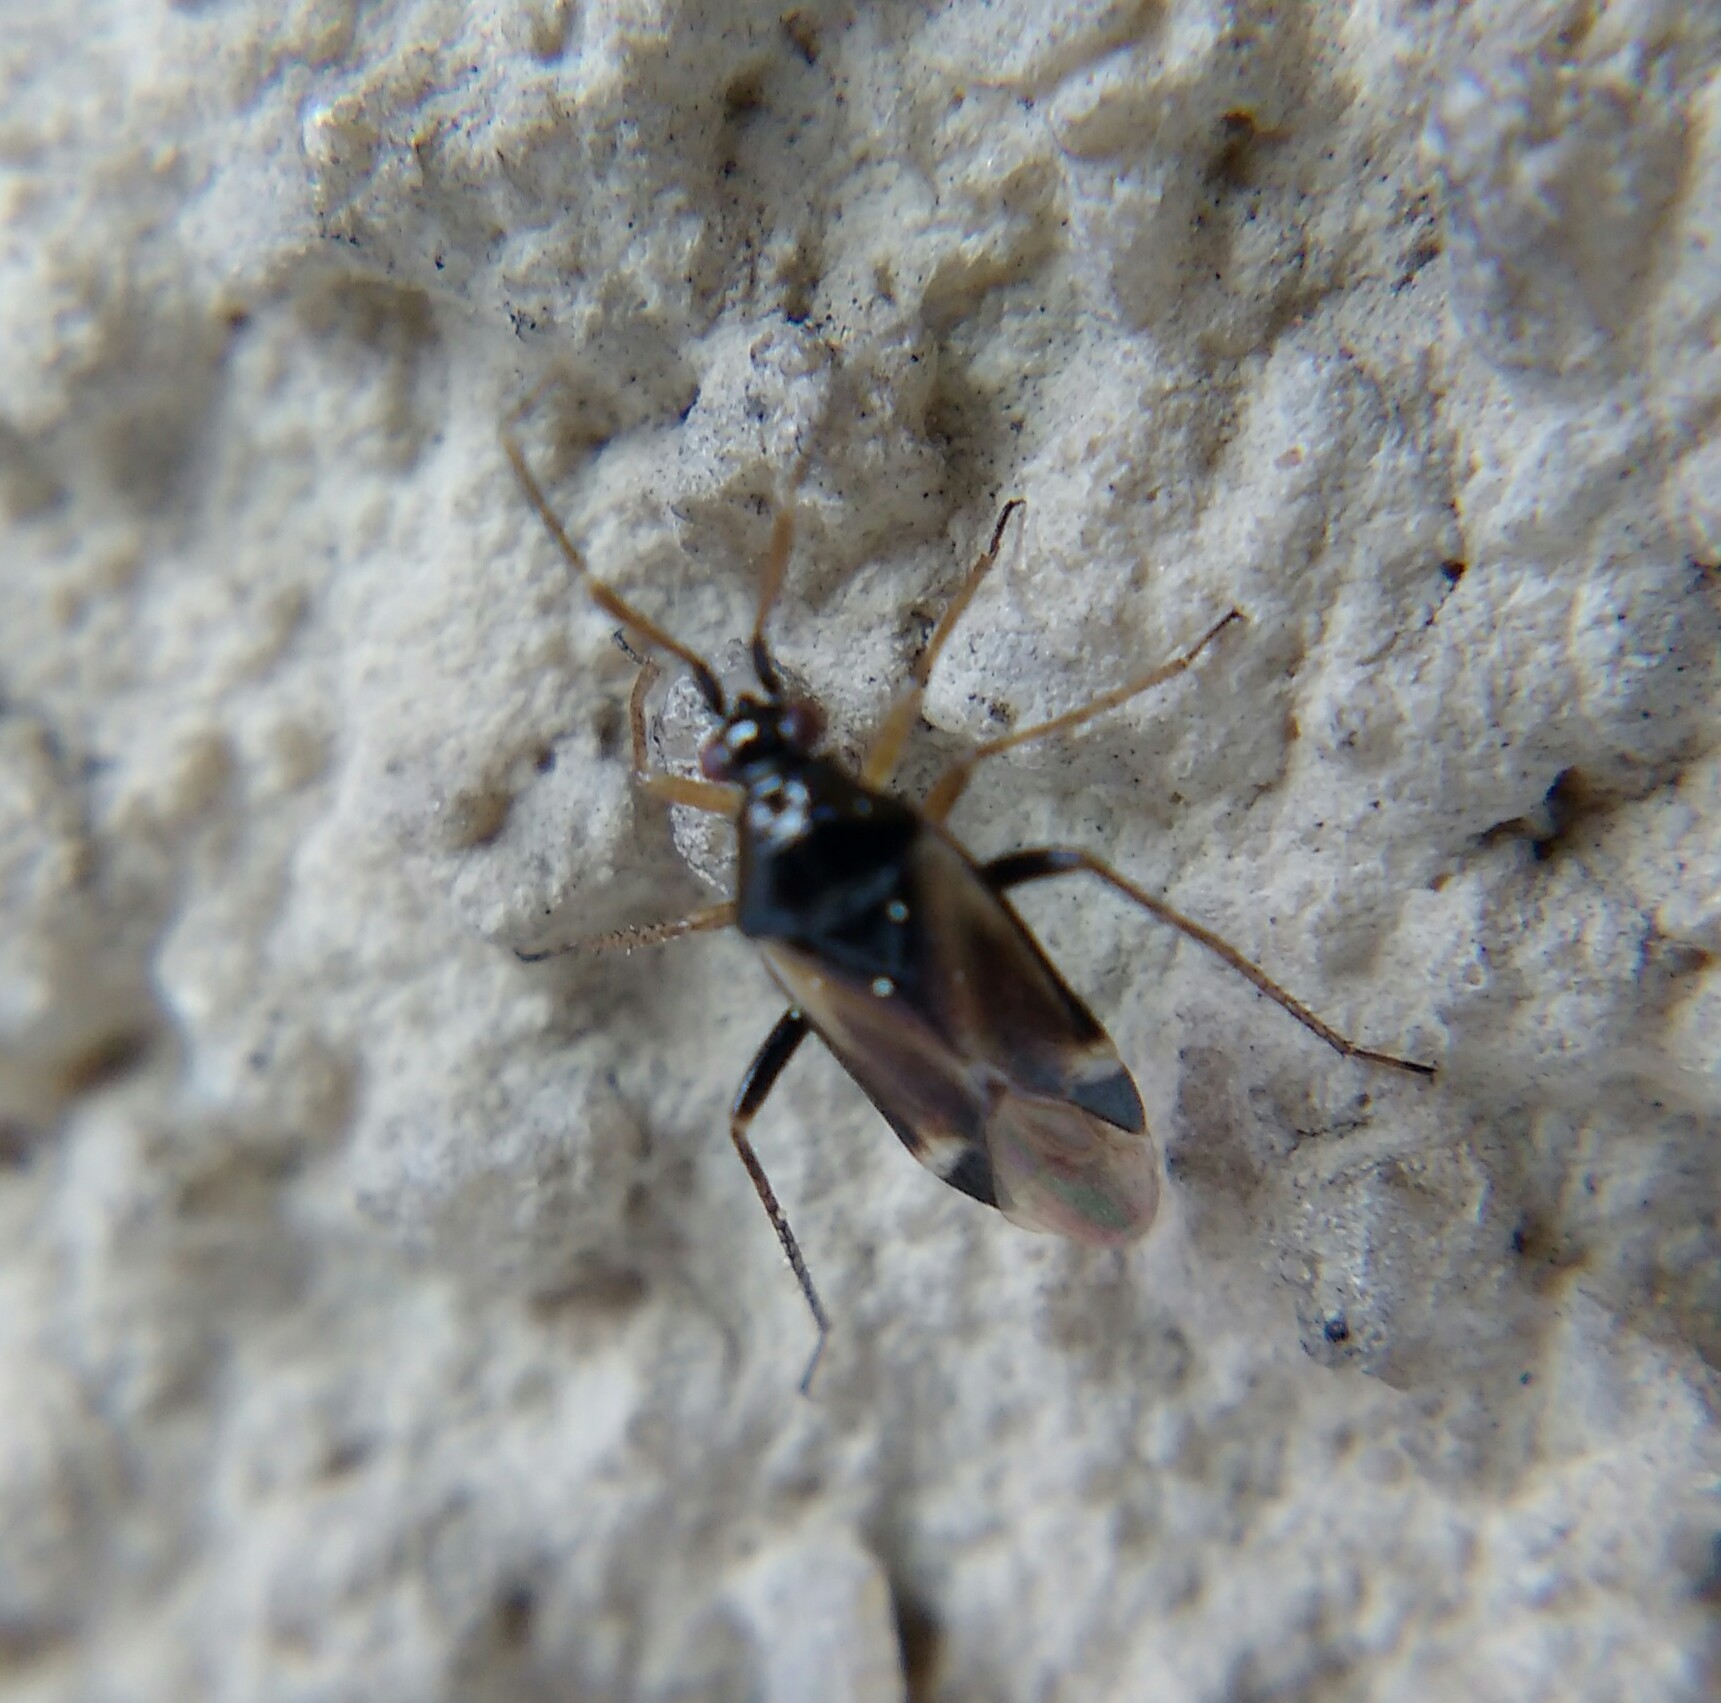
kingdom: Animalia
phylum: Arthropoda
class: Insecta
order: Hemiptera
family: Miridae
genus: Harpocera
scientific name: Harpocera hellenica
